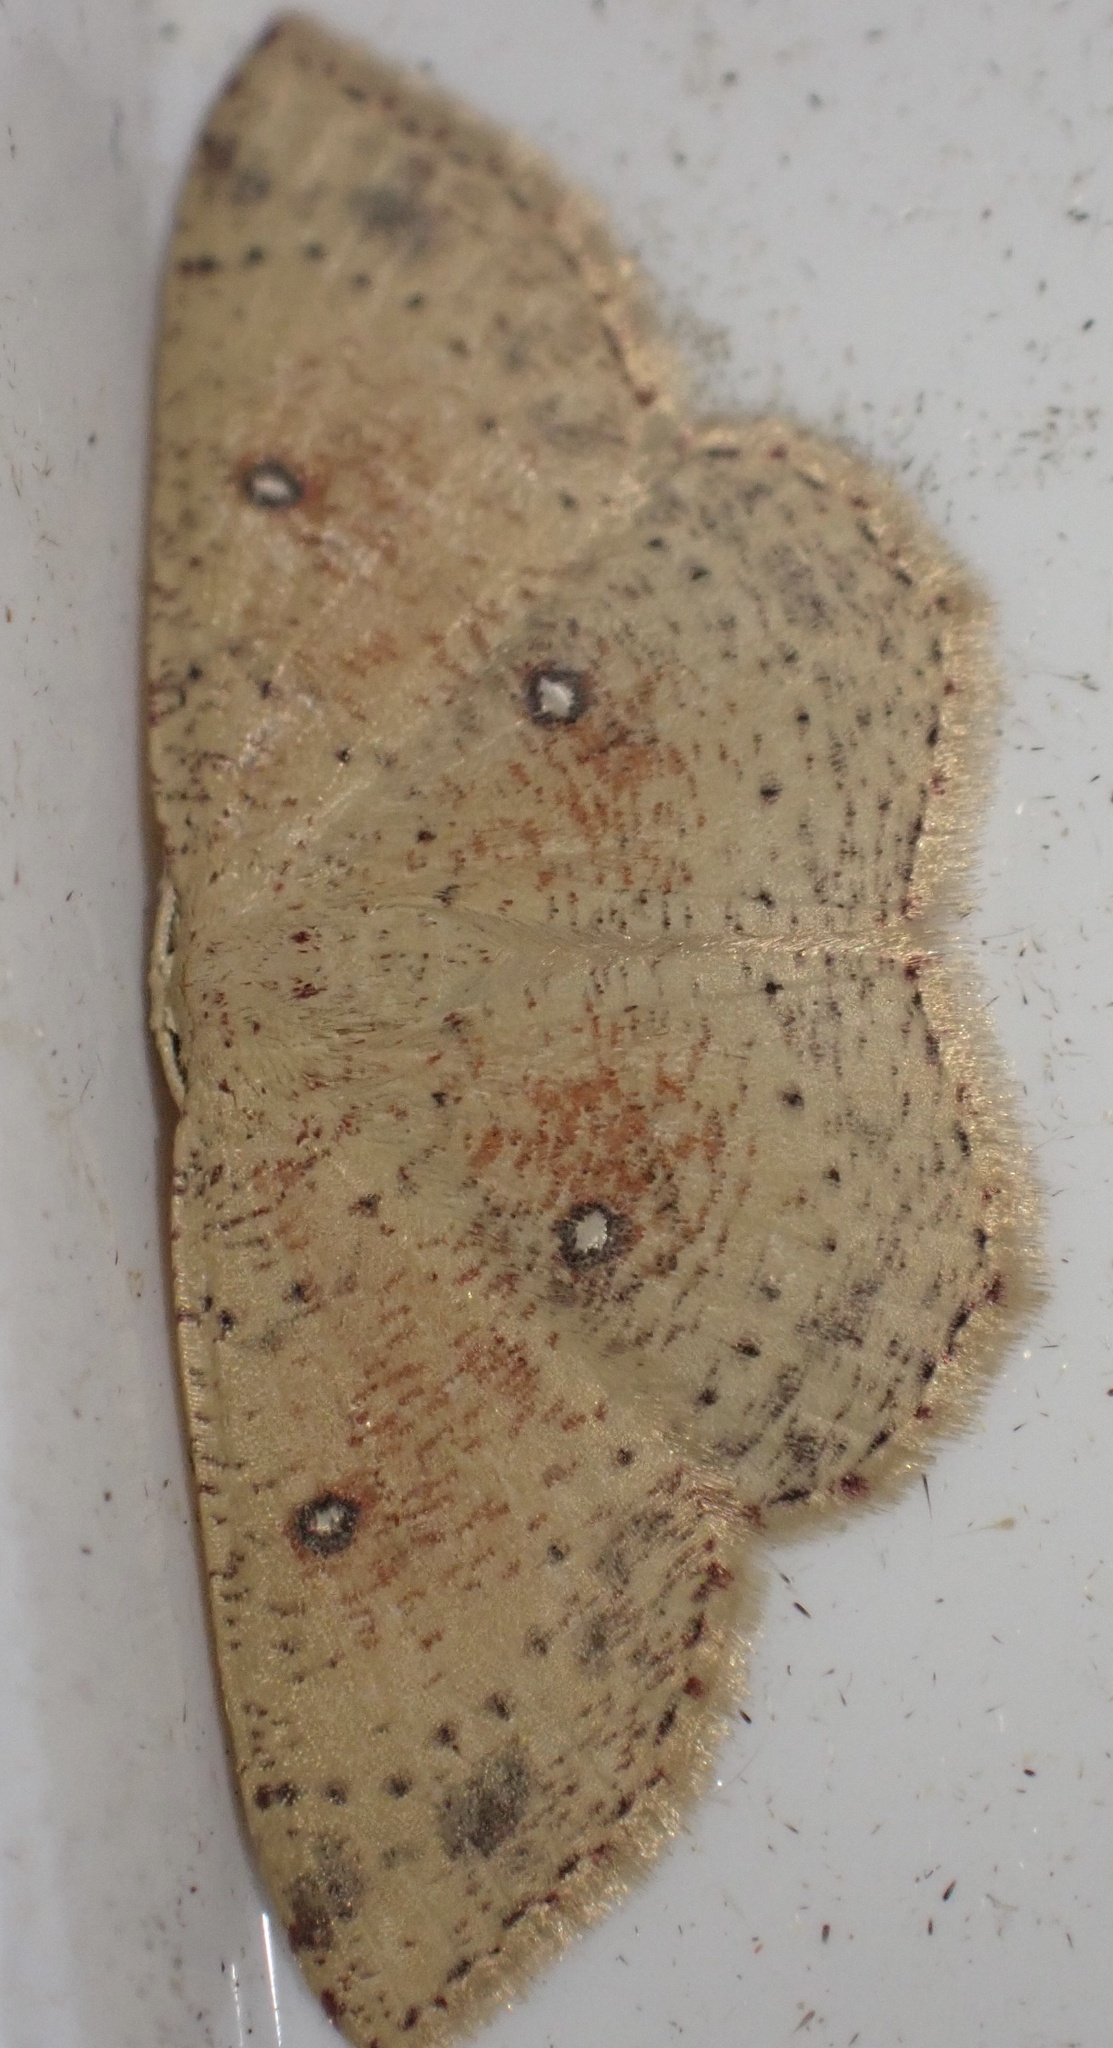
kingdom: Animalia
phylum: Arthropoda
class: Insecta
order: Lepidoptera
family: Geometridae
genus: Cyclophora
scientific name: Cyclophora porata
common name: False mocha
